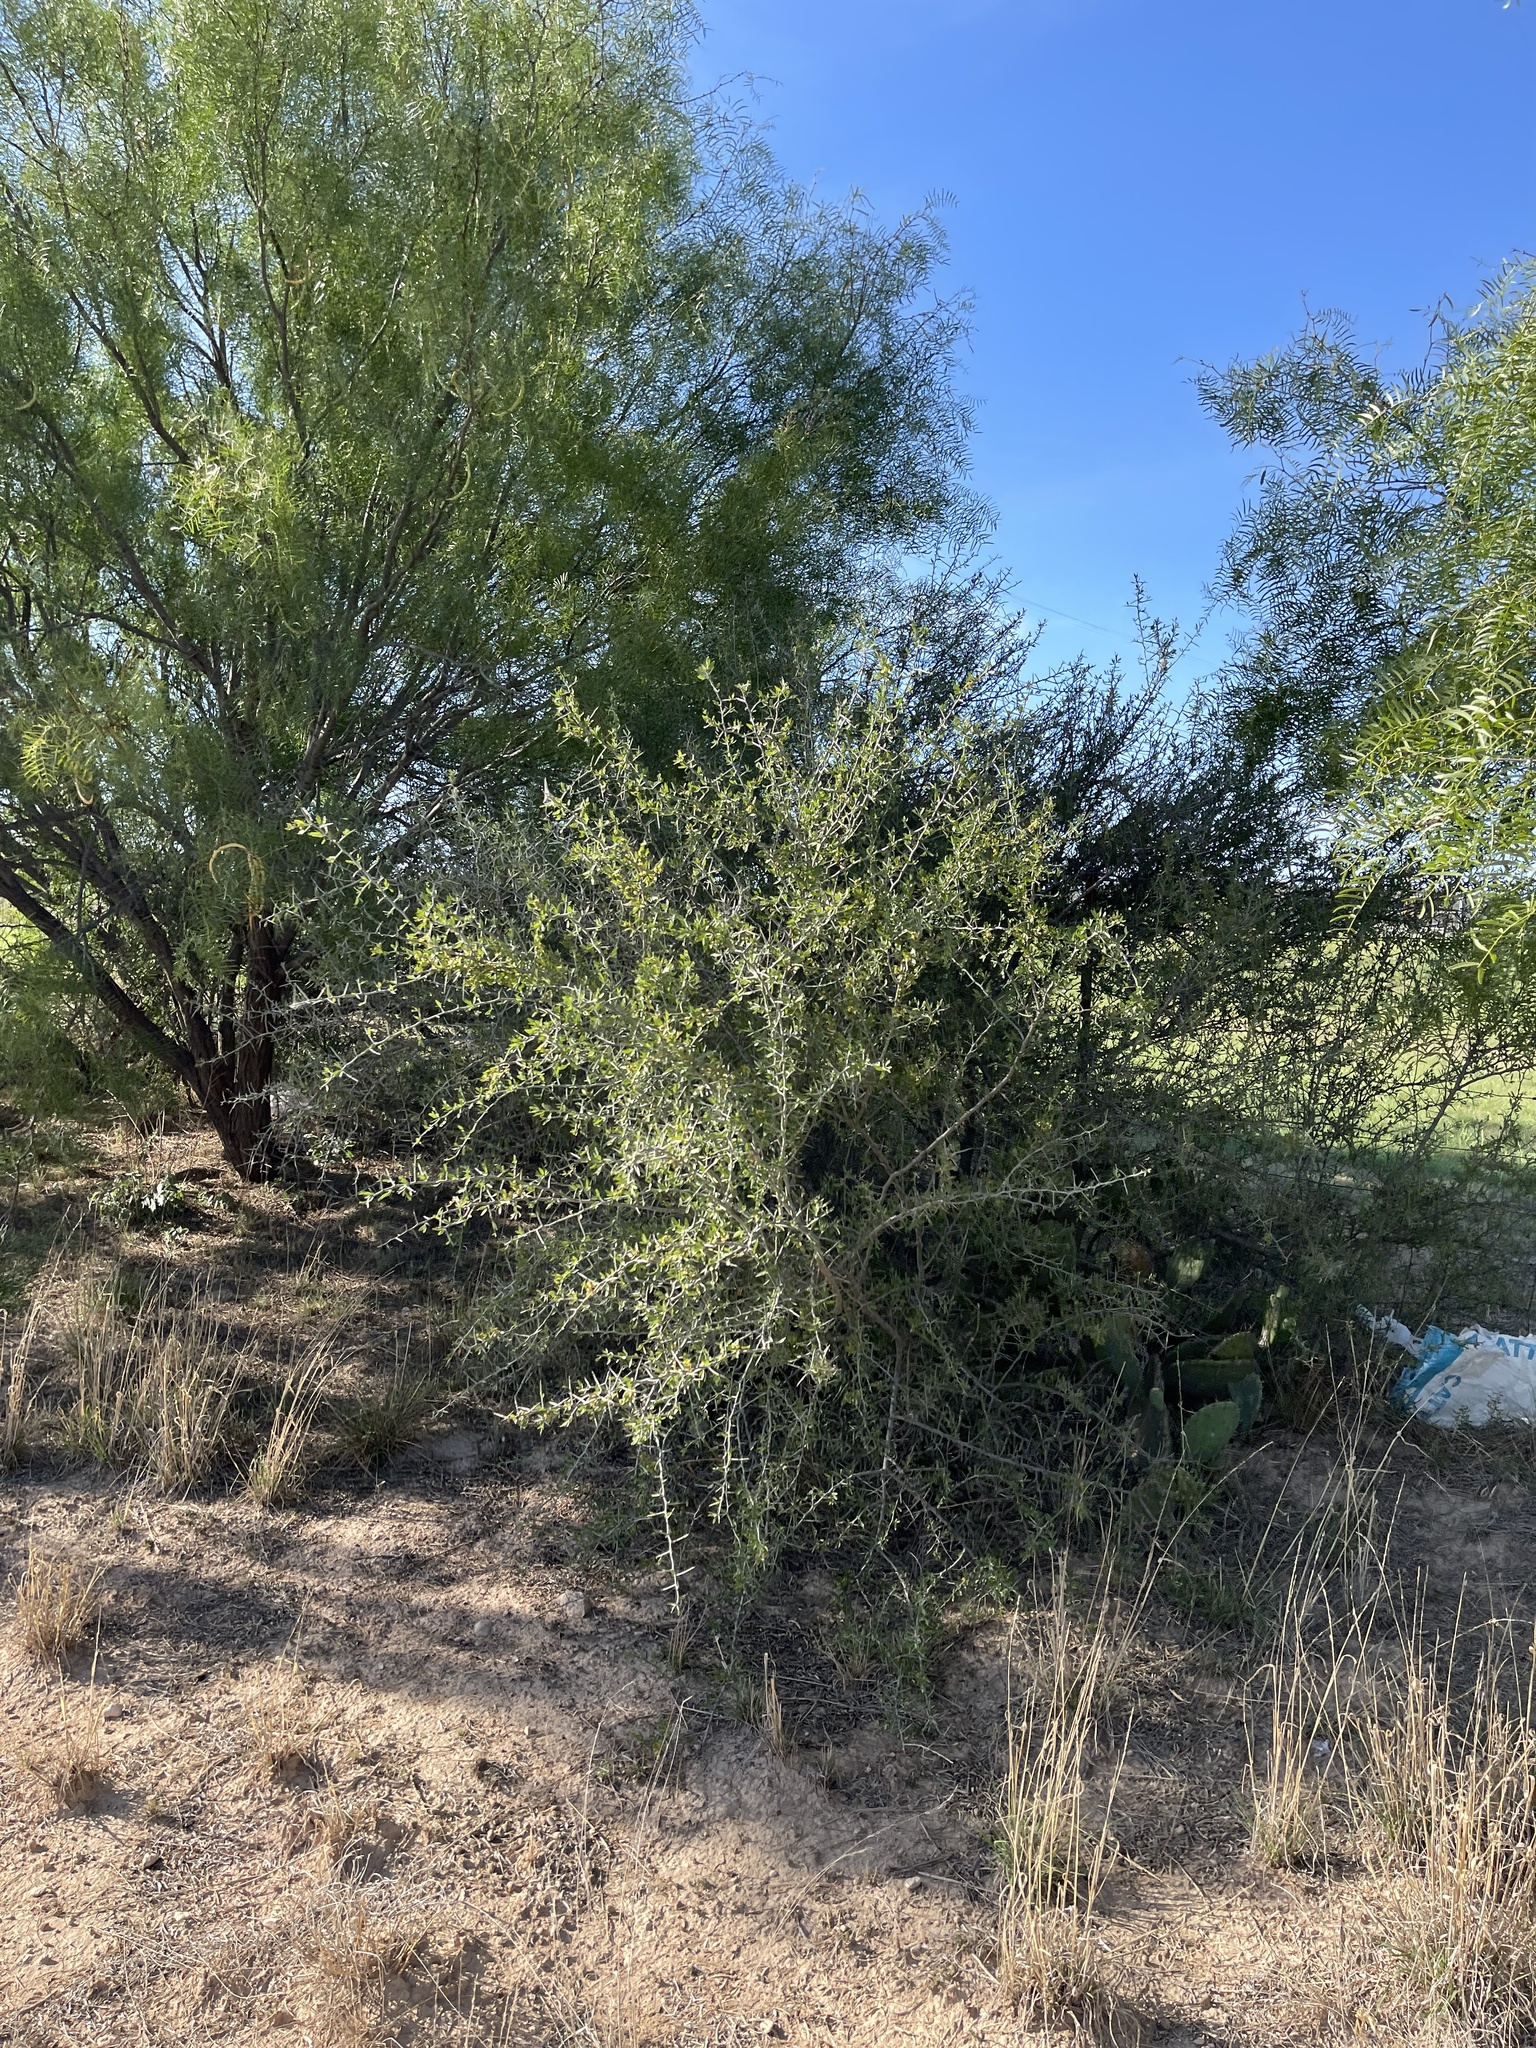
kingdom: Plantae
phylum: Tracheophyta
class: Magnoliopsida
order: Rosales
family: Rhamnaceae
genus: Sarcomphalus
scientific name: Sarcomphalus obtusifolius
